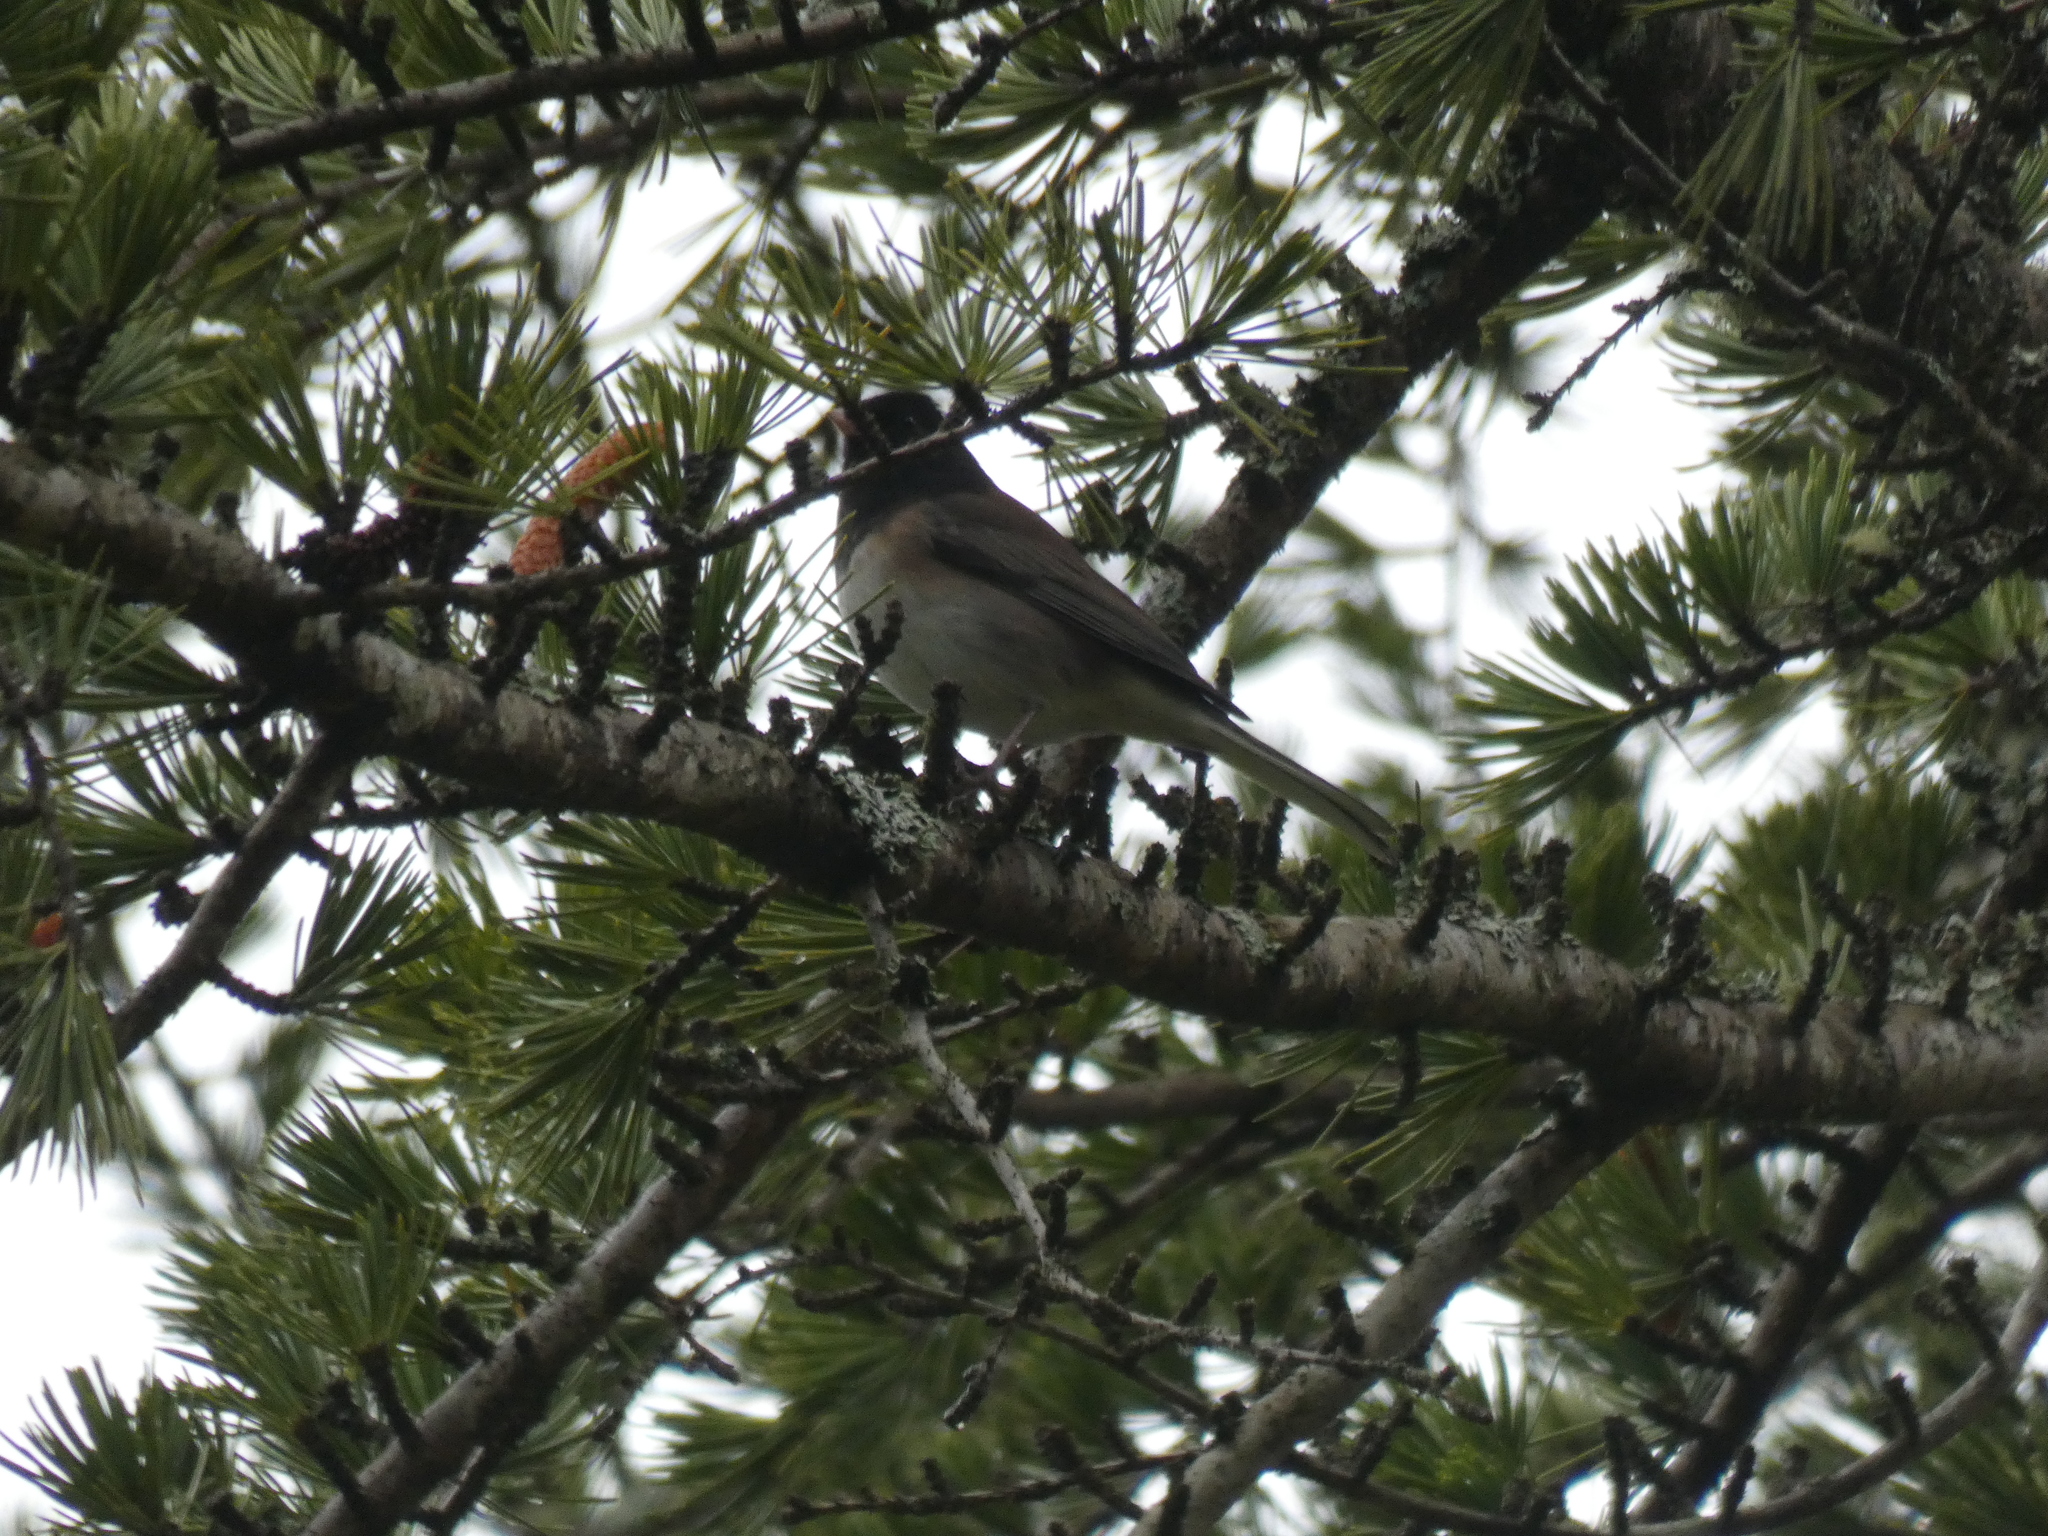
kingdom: Animalia
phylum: Chordata
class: Aves
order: Passeriformes
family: Passerellidae
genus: Junco
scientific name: Junco hyemalis
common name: Dark-eyed junco
